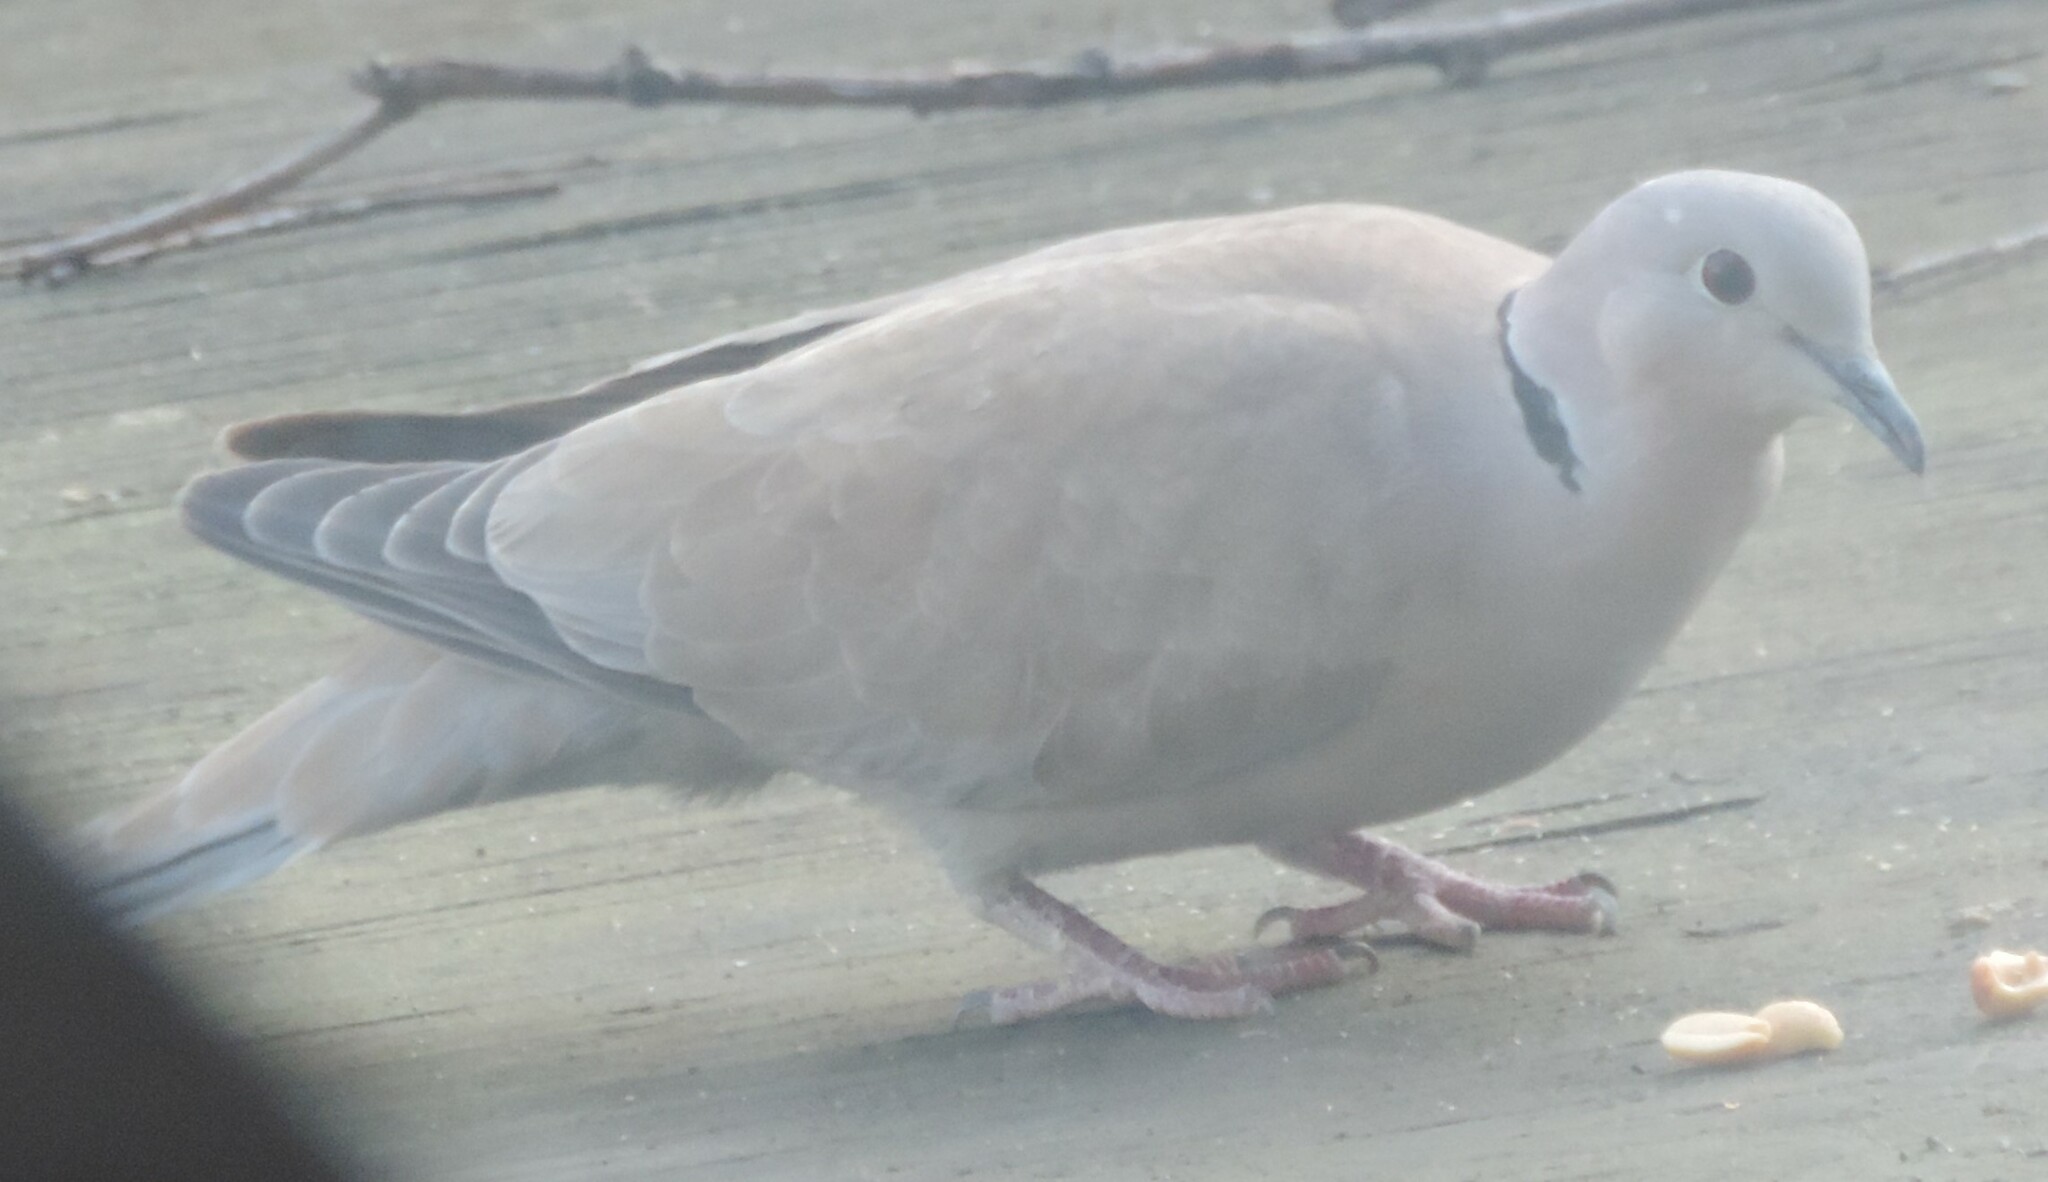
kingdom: Animalia
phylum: Chordata
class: Aves
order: Columbiformes
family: Columbidae
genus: Streptopelia
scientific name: Streptopelia decaocto
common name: Eurasian collared dove
